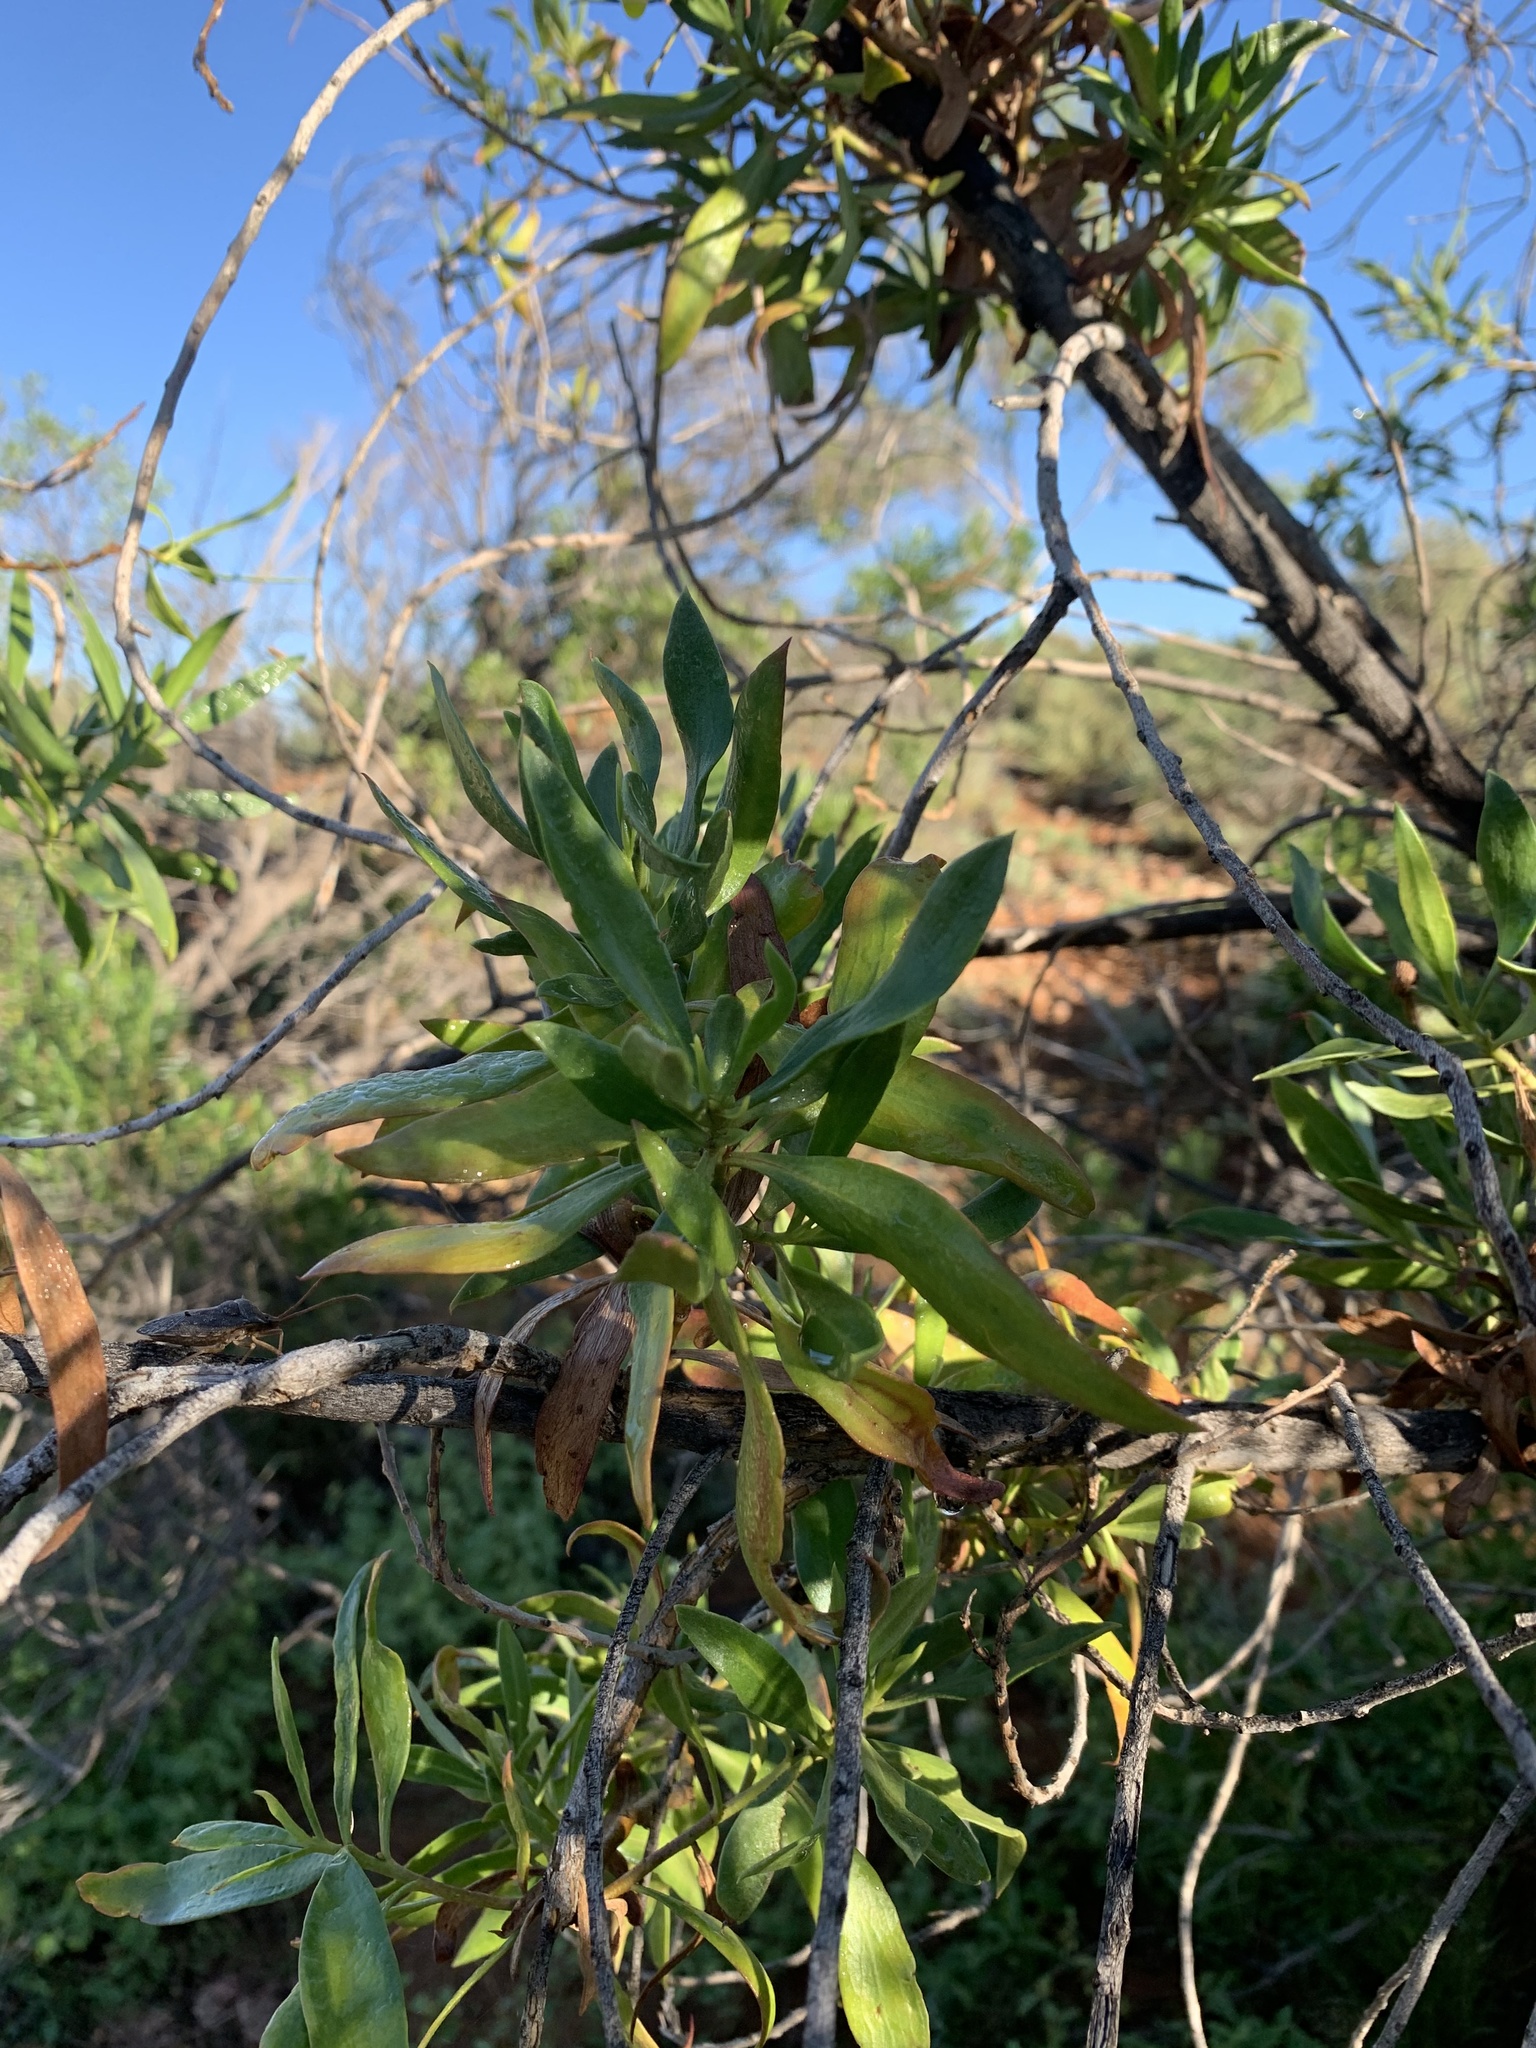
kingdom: Plantae
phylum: Tracheophyta
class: Magnoliopsida
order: Lamiales
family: Scrophulariaceae
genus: Myoporum
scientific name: Myoporum montanum
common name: Waterbush
